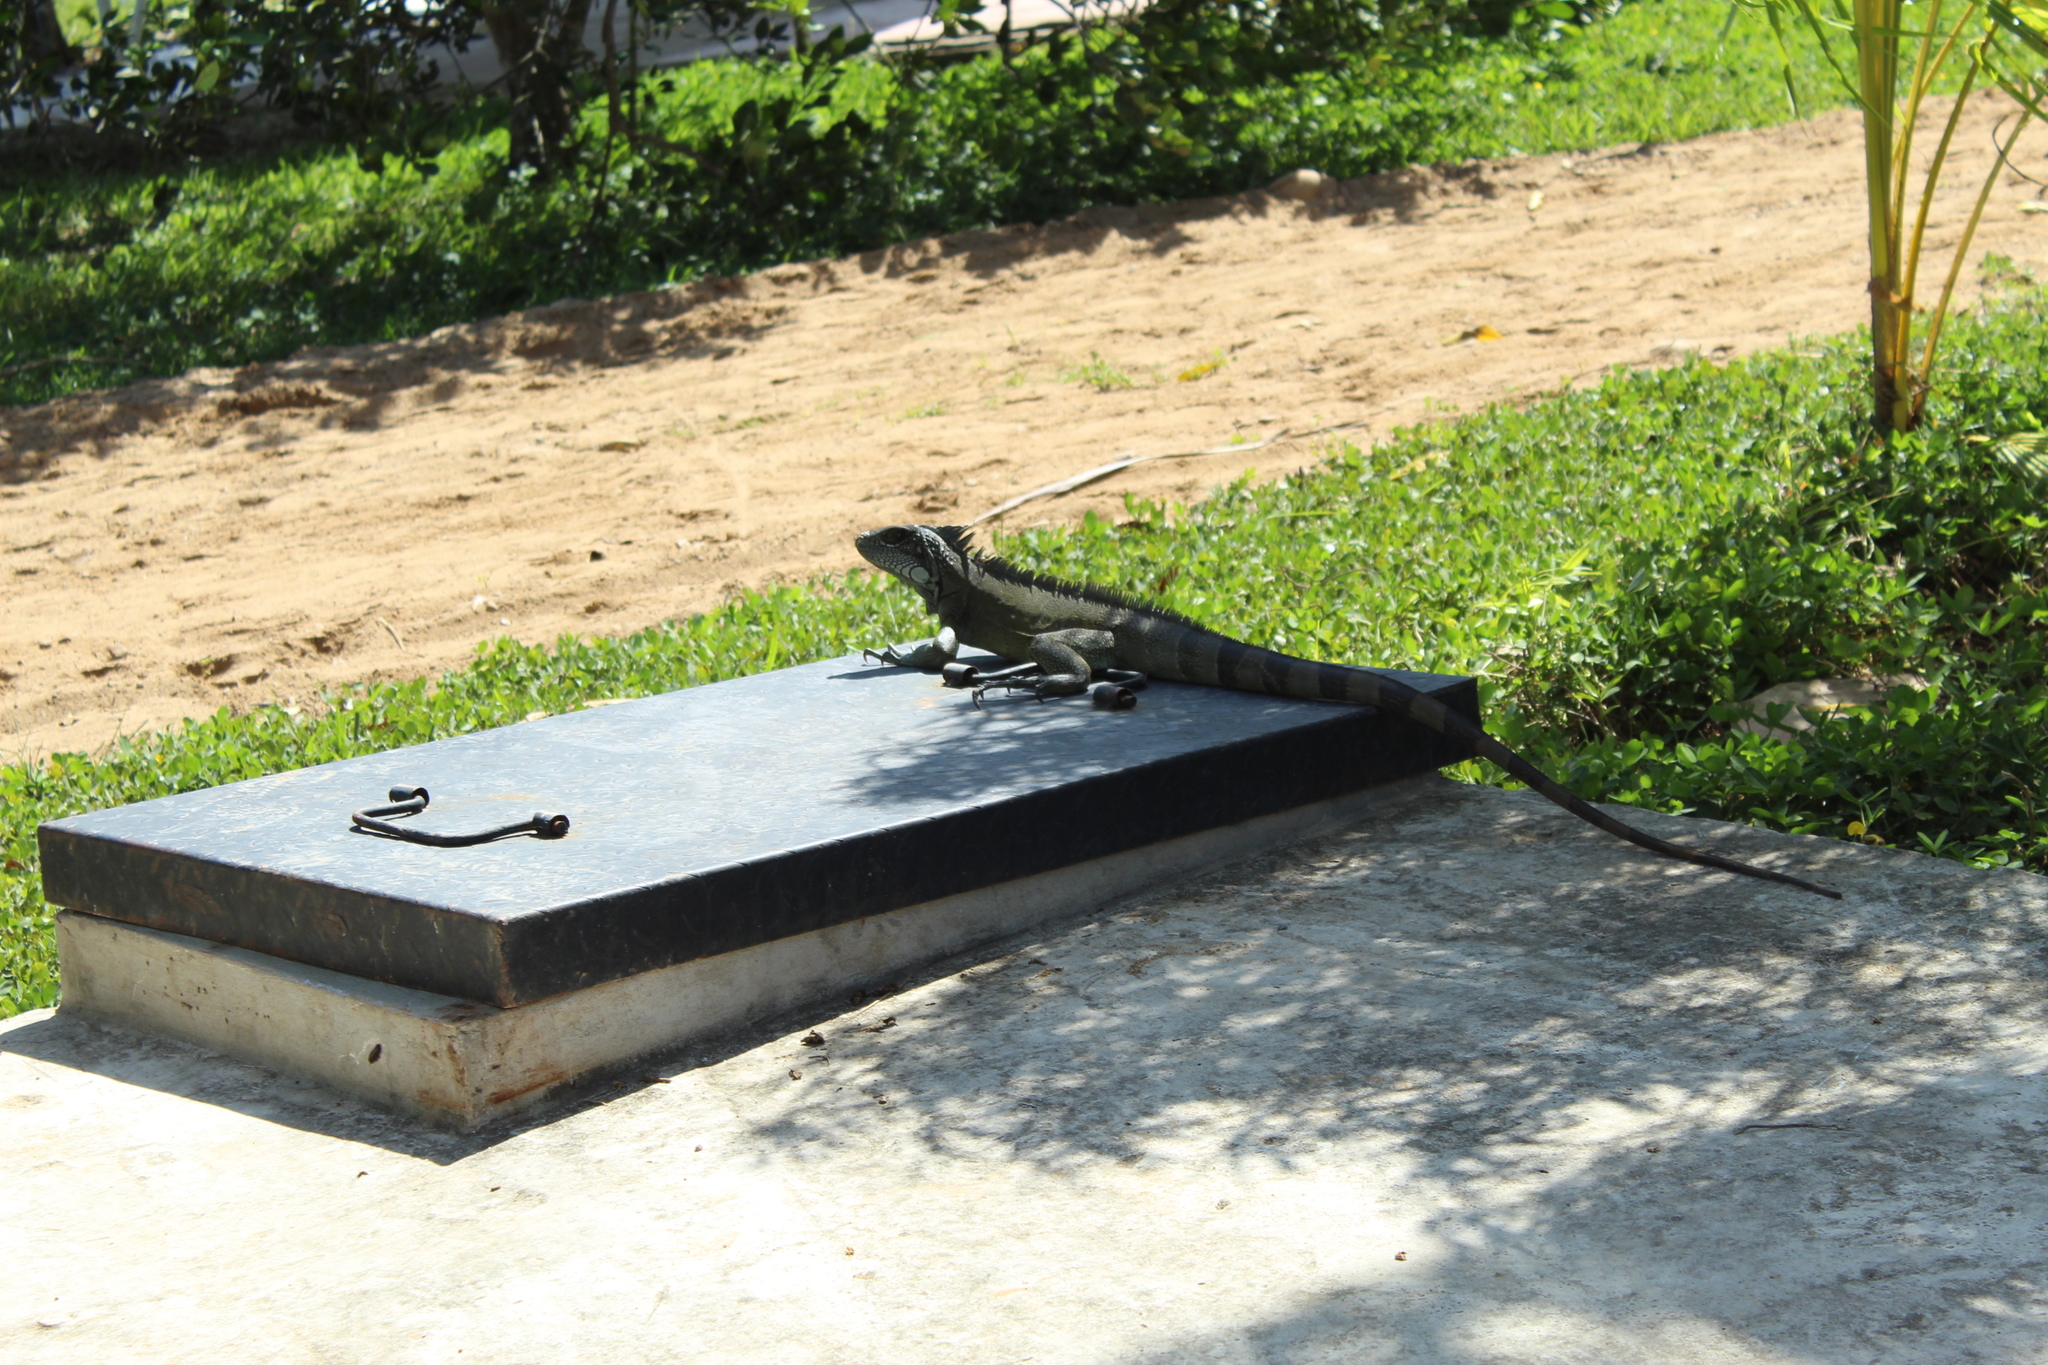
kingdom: Animalia
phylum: Chordata
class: Squamata
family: Iguanidae
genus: Iguana
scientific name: Iguana iguana
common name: Green iguana
